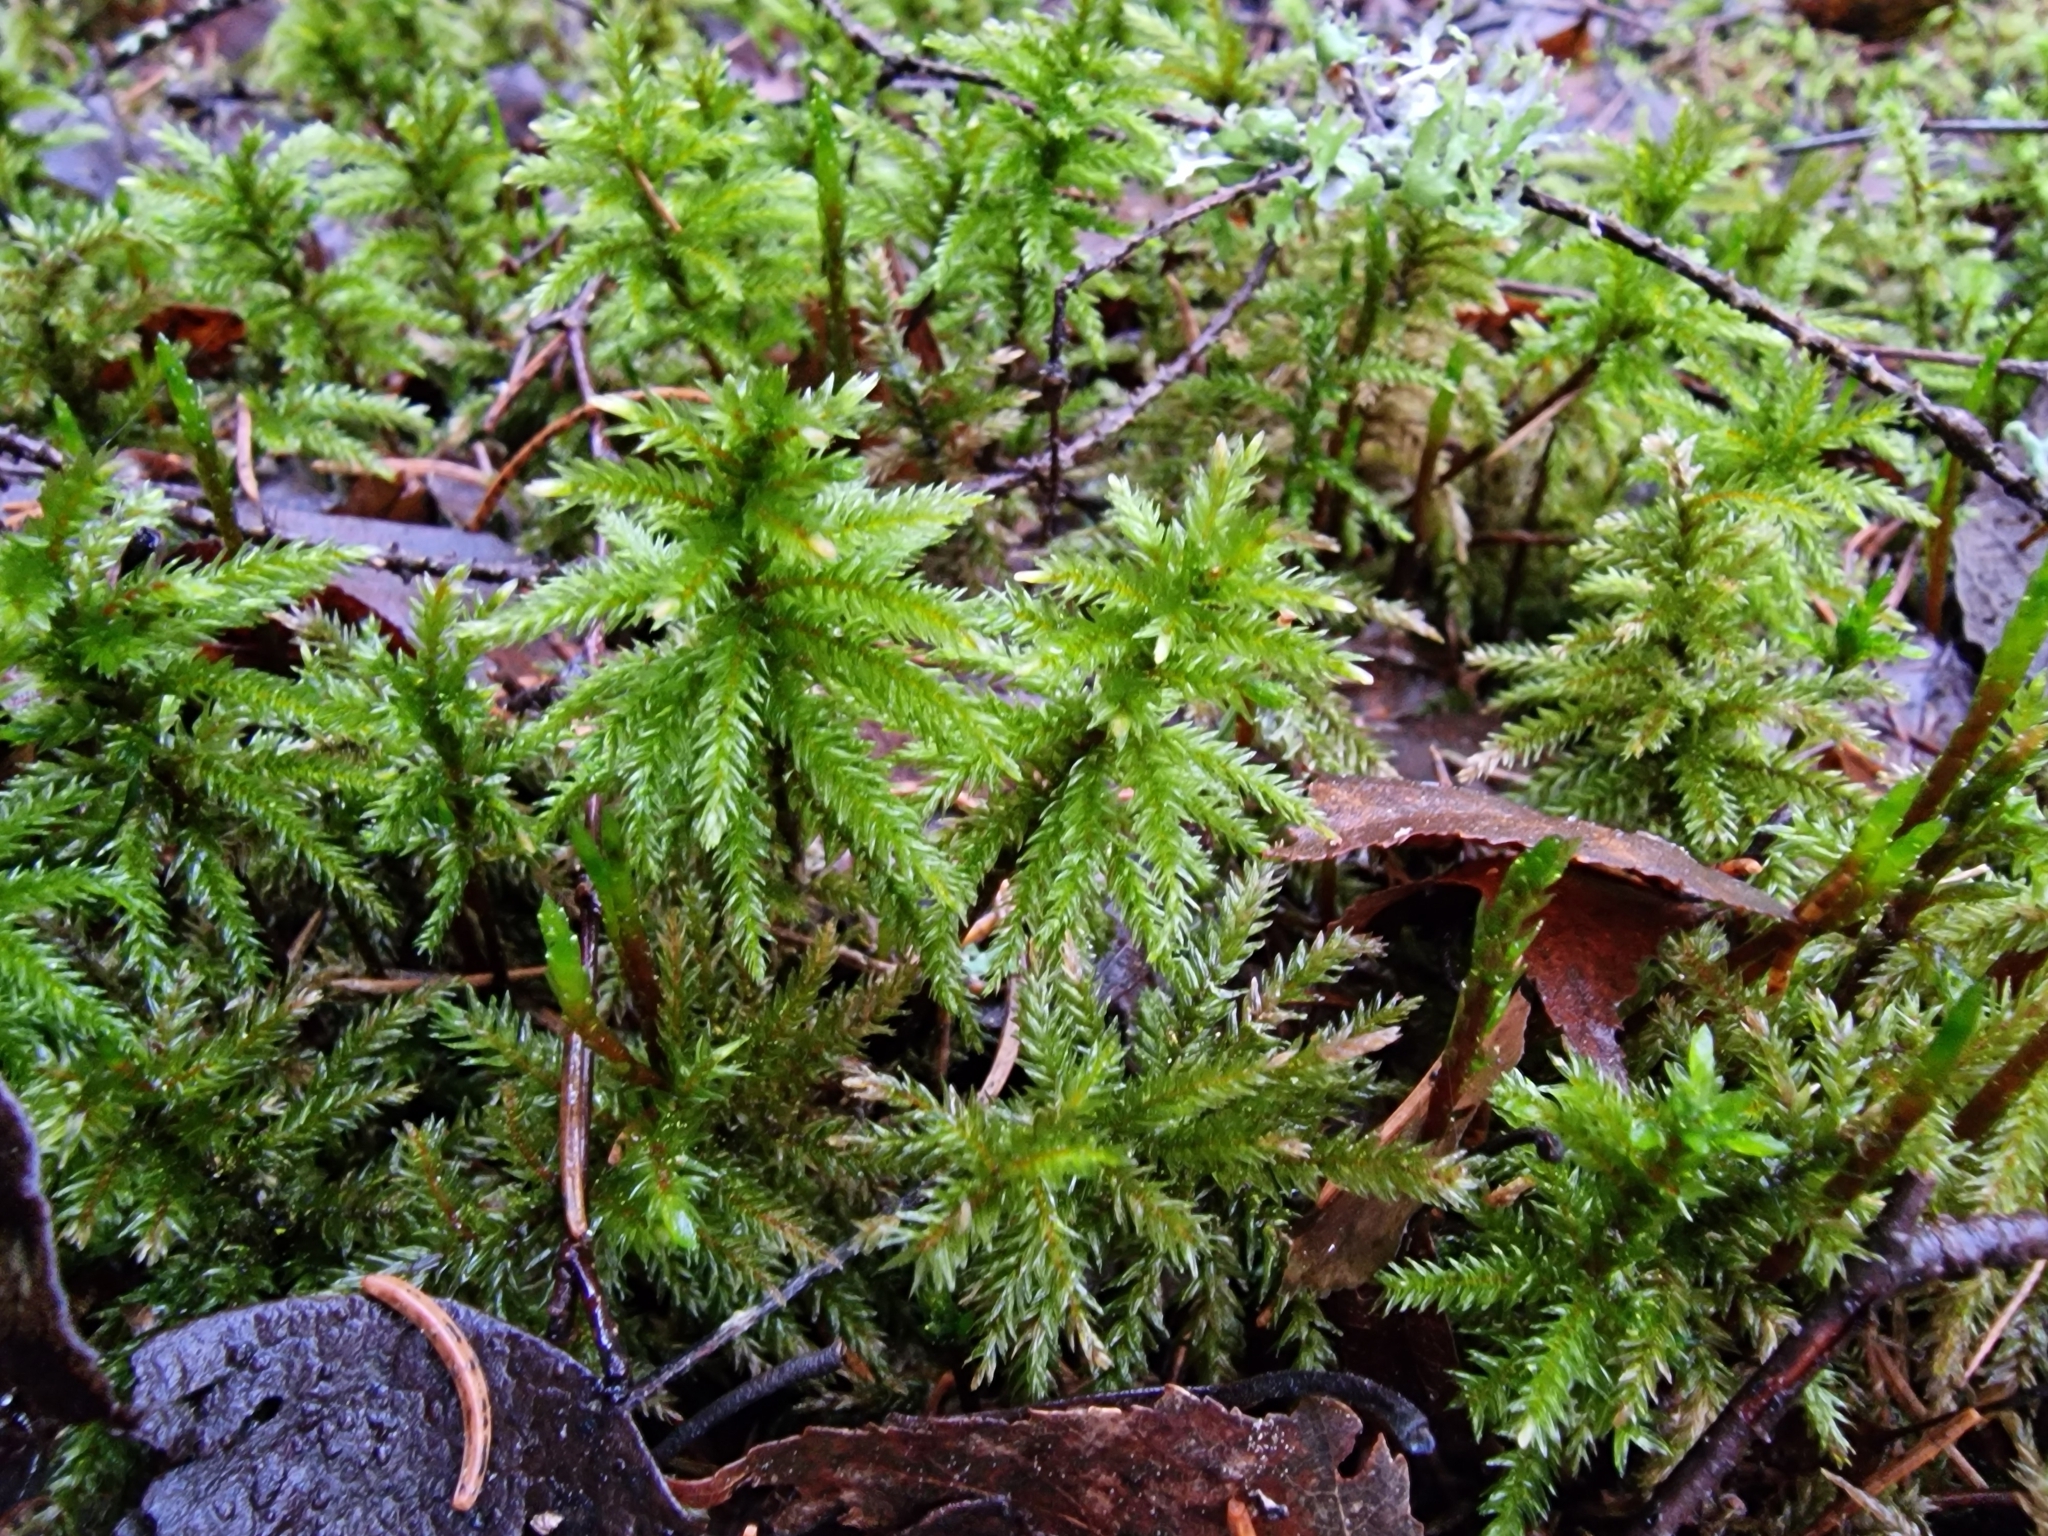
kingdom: Plantae
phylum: Bryophyta
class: Bryopsida
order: Hypnales
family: Climaciaceae
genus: Climacium
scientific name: Climacium dendroides
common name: Northern tree moss
